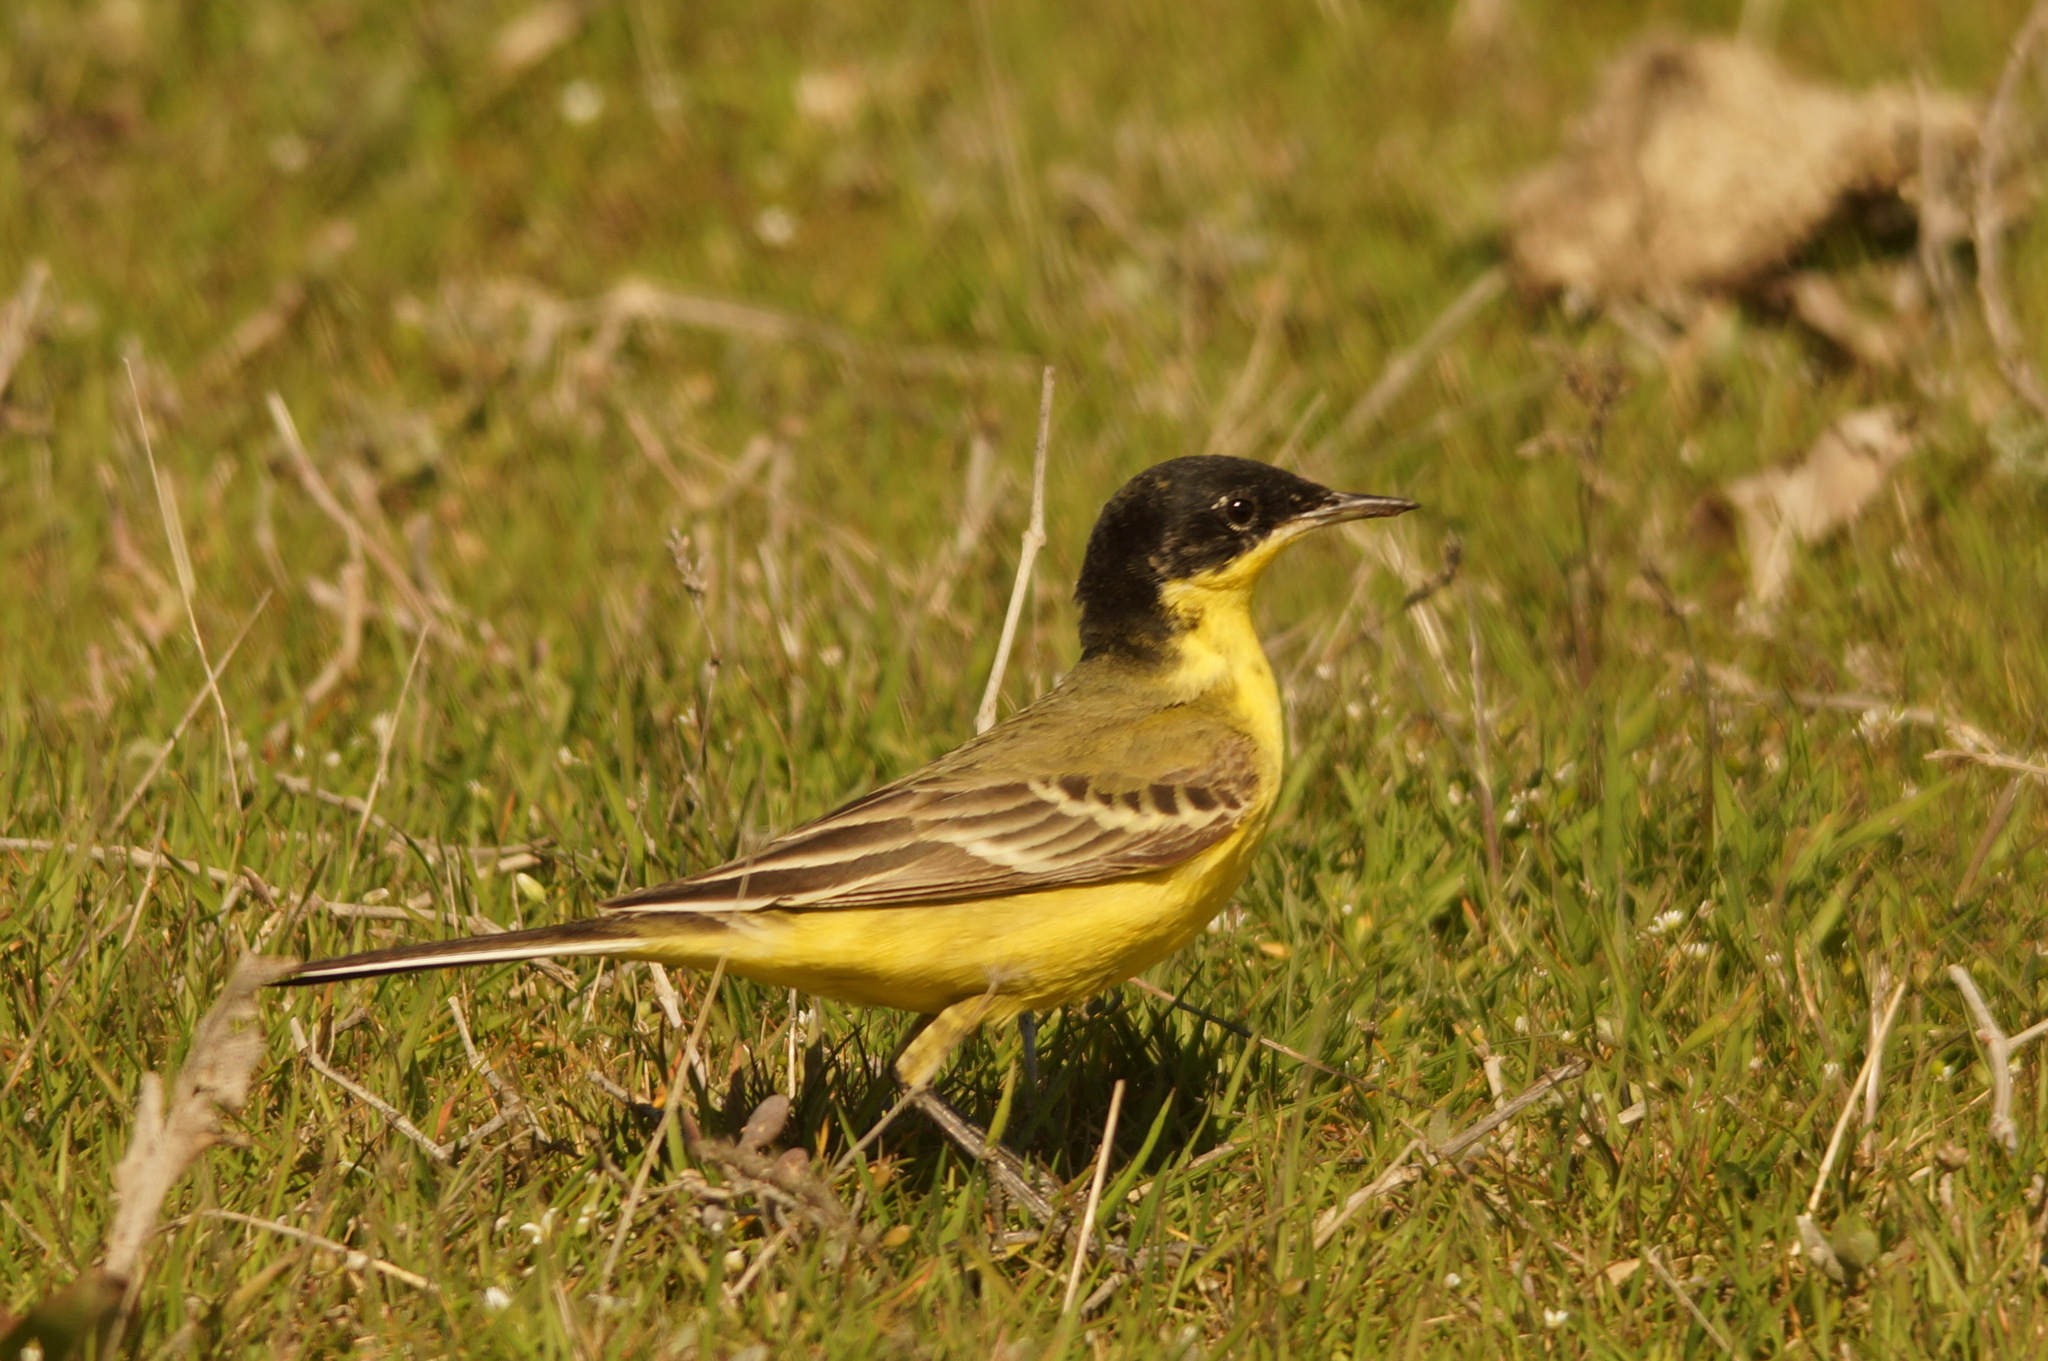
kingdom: Animalia
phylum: Chordata
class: Aves
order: Passeriformes
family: Motacillidae
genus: Motacilla
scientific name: Motacilla flava
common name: Western yellow wagtail
